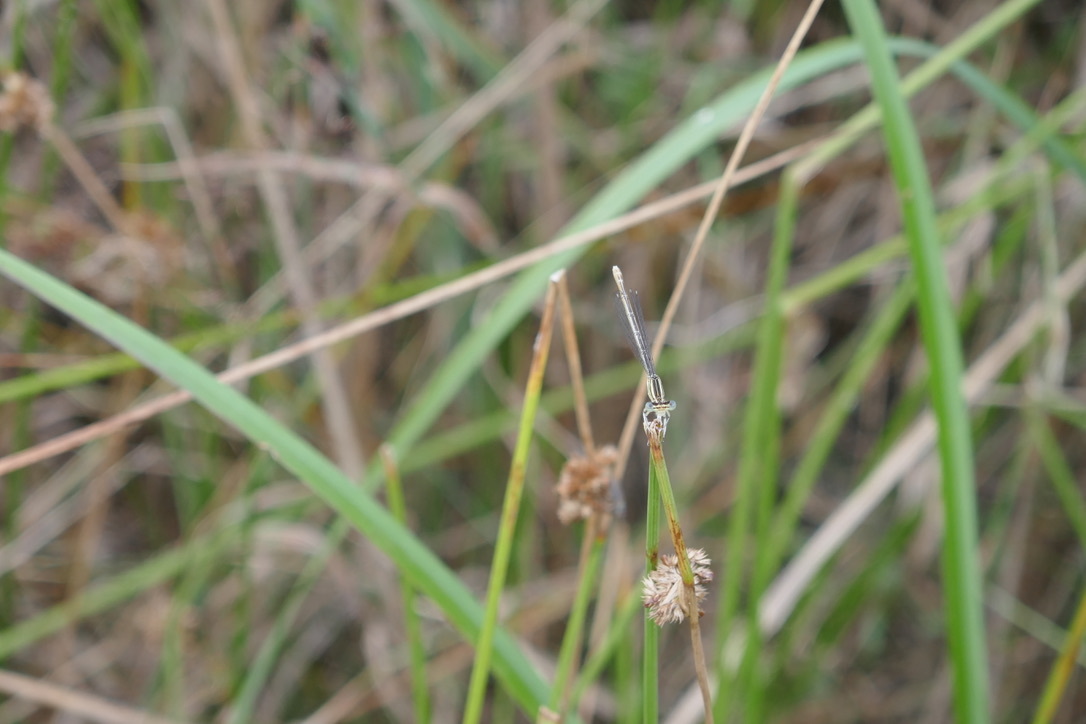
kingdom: Animalia
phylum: Arthropoda
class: Insecta
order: Odonata
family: Platycnemididae
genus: Platycnemis
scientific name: Platycnemis pennipes
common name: White-legged damselfly
